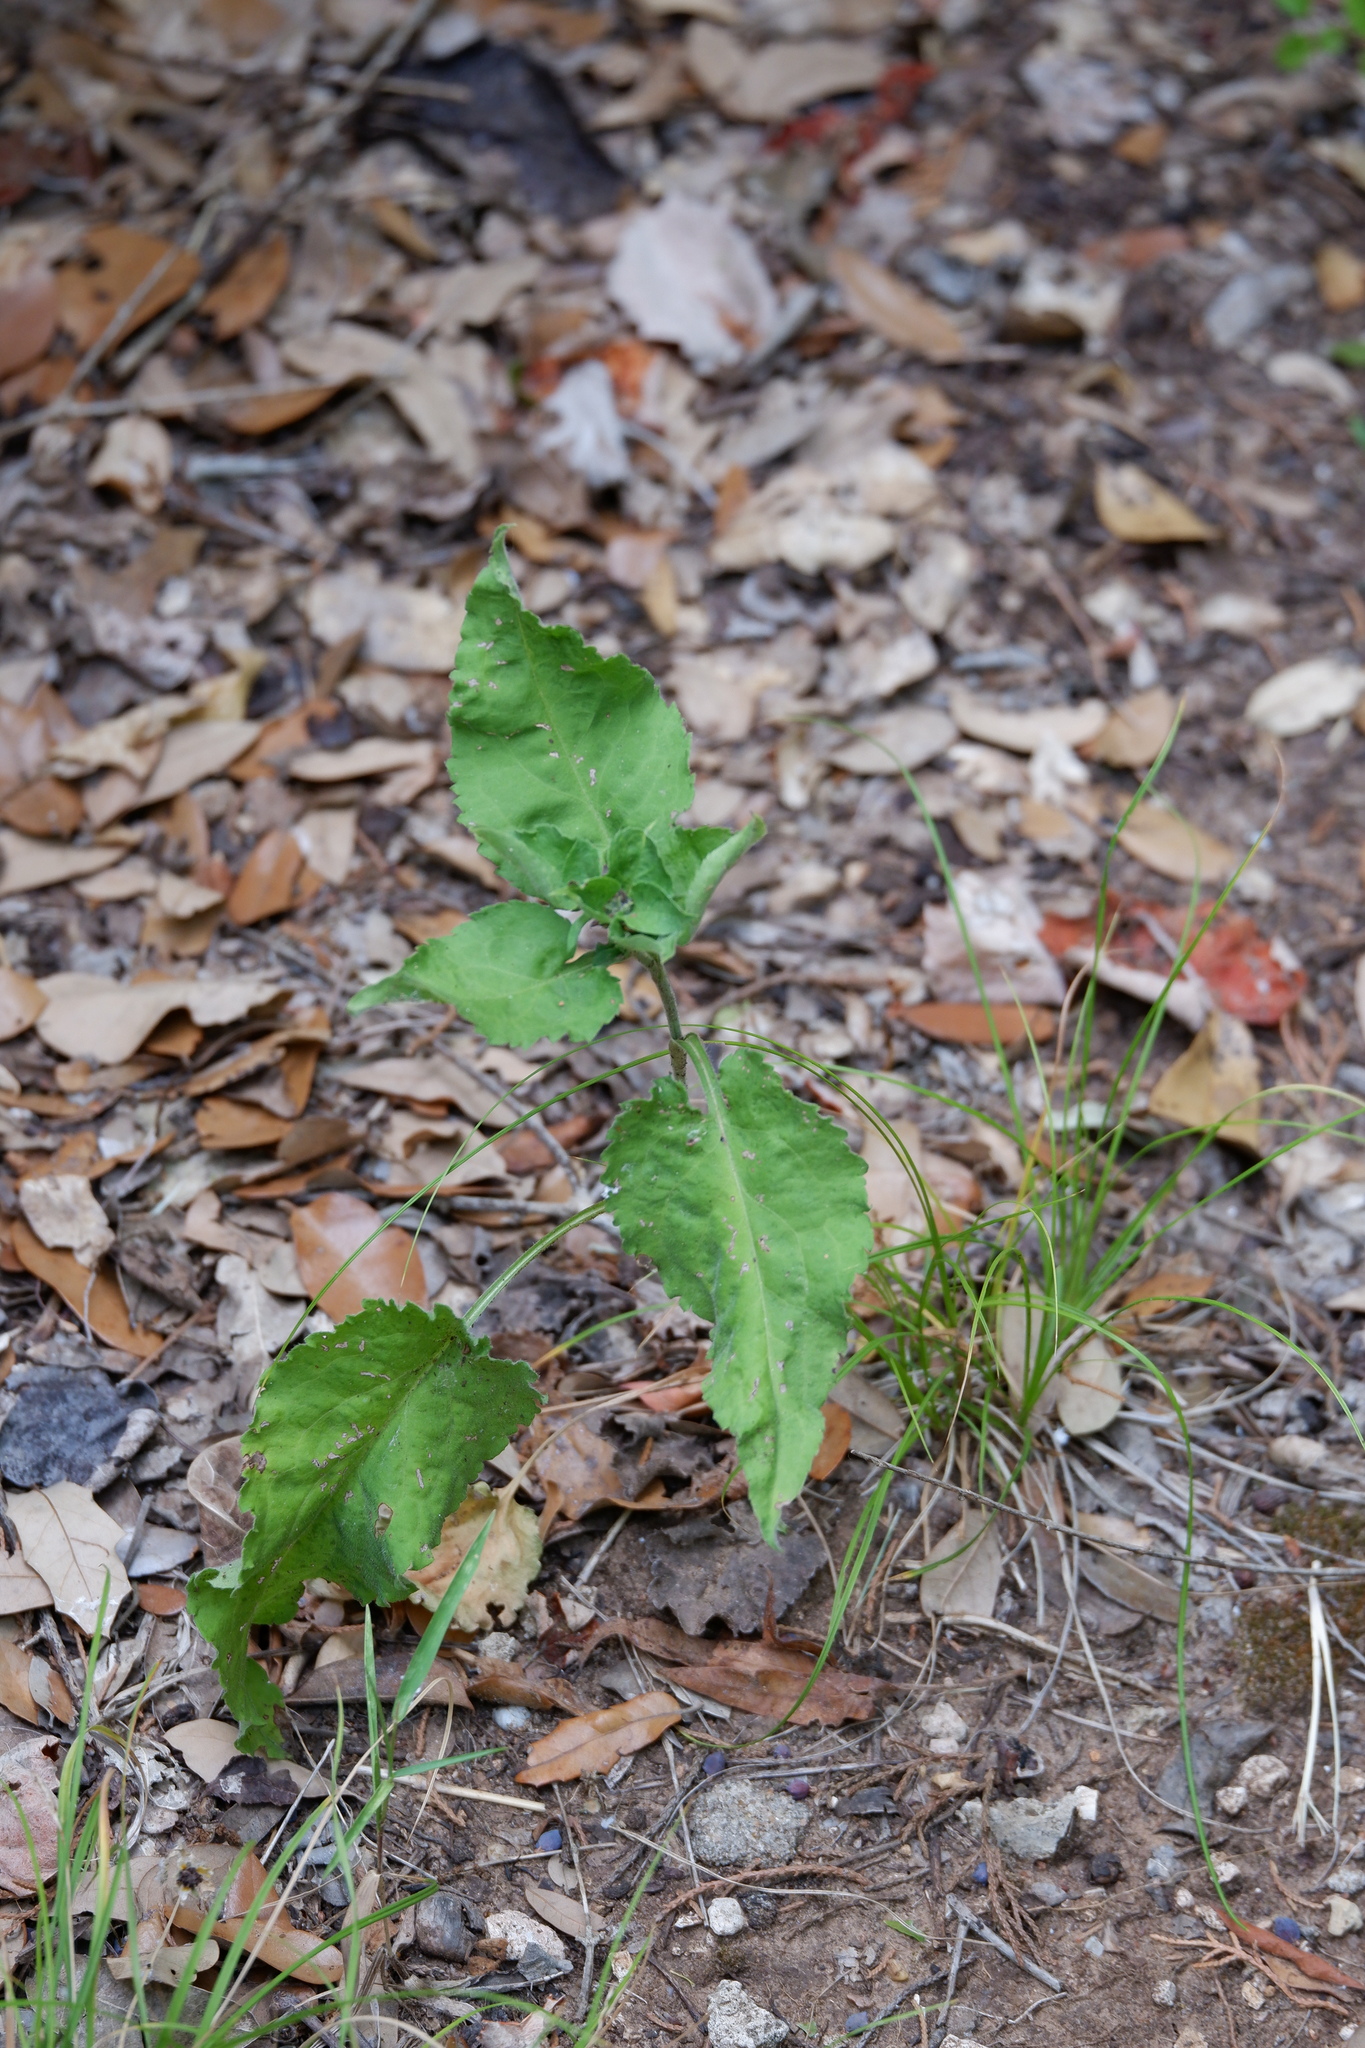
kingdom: Plantae
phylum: Tracheophyta
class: Magnoliopsida
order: Asterales
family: Asteraceae
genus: Symphyotrichum
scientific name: Symphyotrichum drummondii
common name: Drummond's aster
